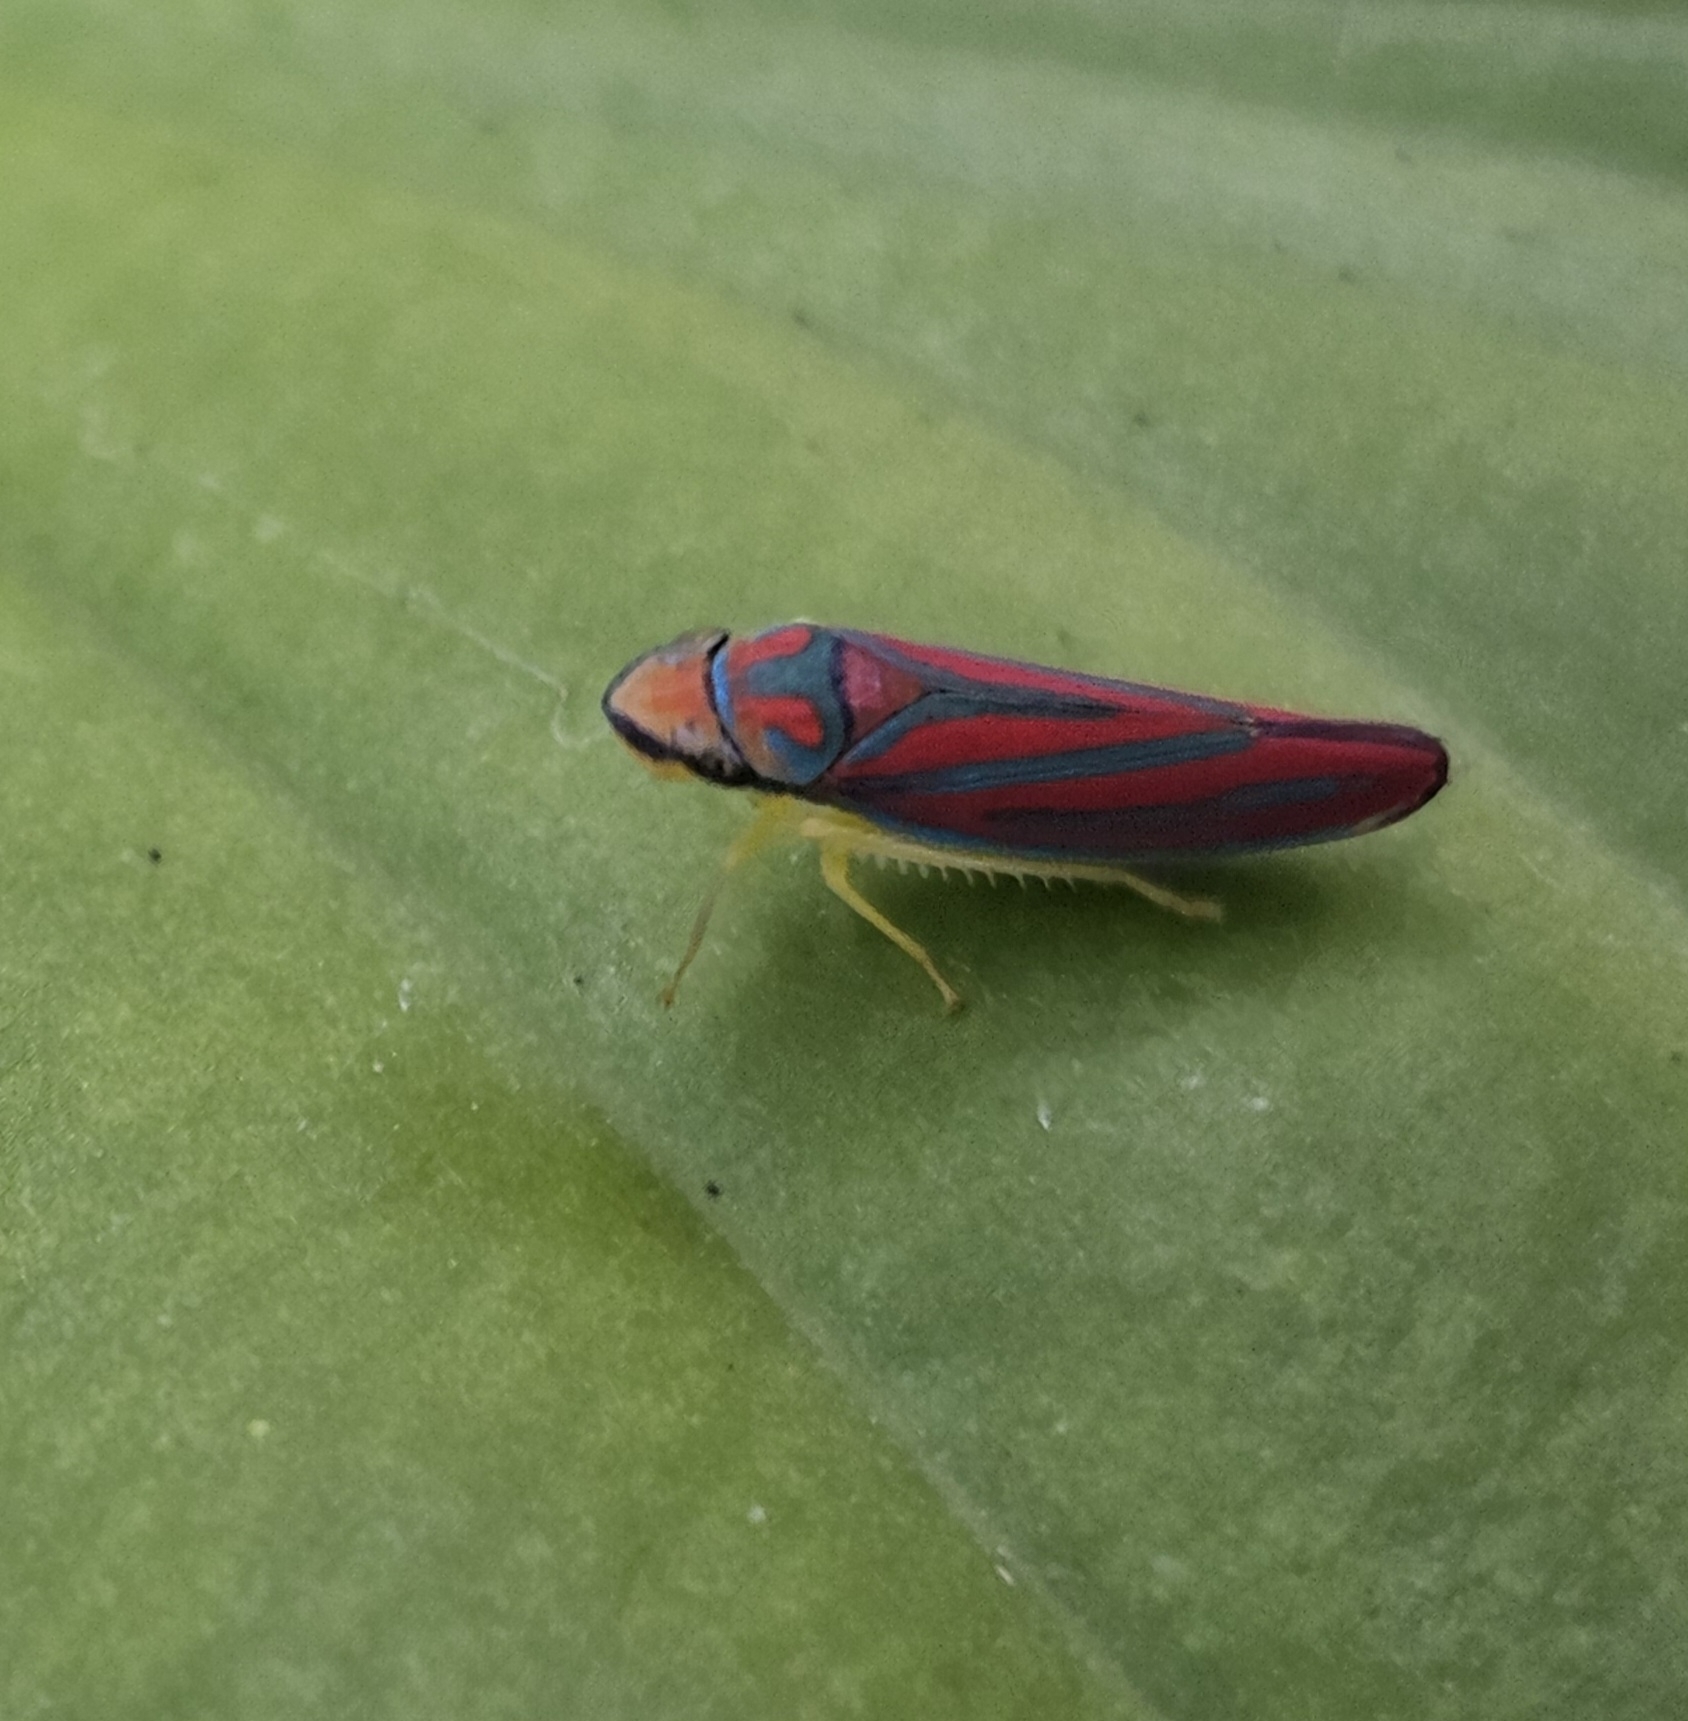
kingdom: Animalia
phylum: Arthropoda
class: Insecta
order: Hemiptera
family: Cicadellidae
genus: Graphocephala
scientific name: Graphocephala coccinea
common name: Candy-striped leafhopper
